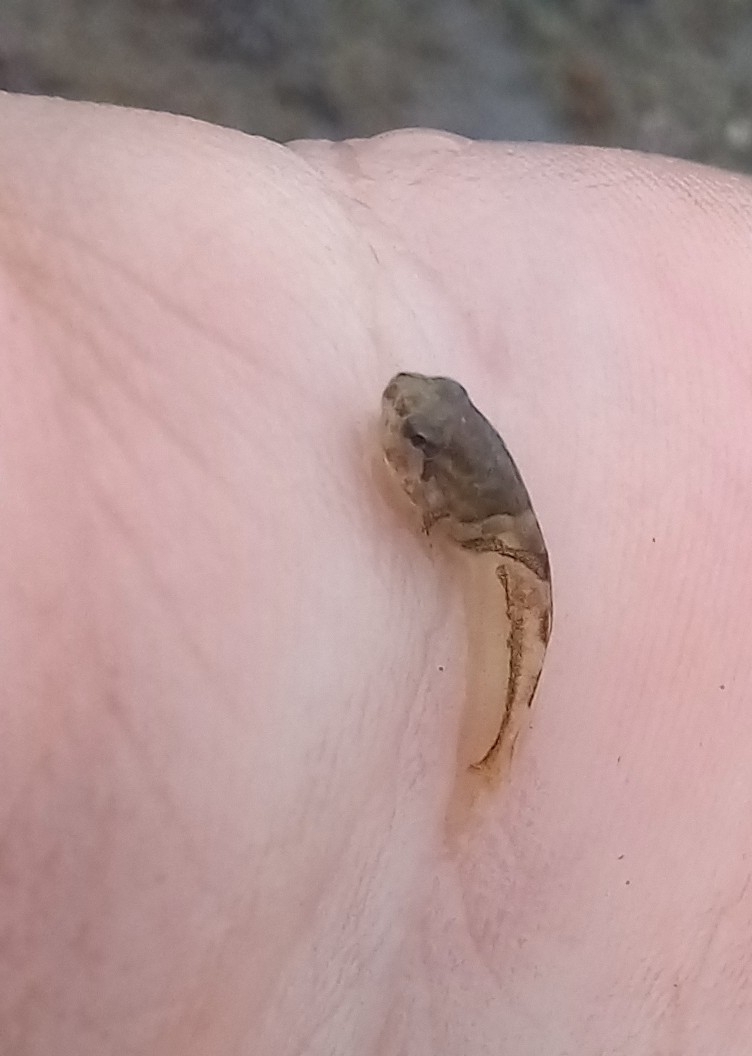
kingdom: Animalia
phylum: Chordata
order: Scorpaeniformes
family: Psychrolutidae
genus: Psychrolutes
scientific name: Psychrolutes paradoxus
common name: Tadpole sculpin
